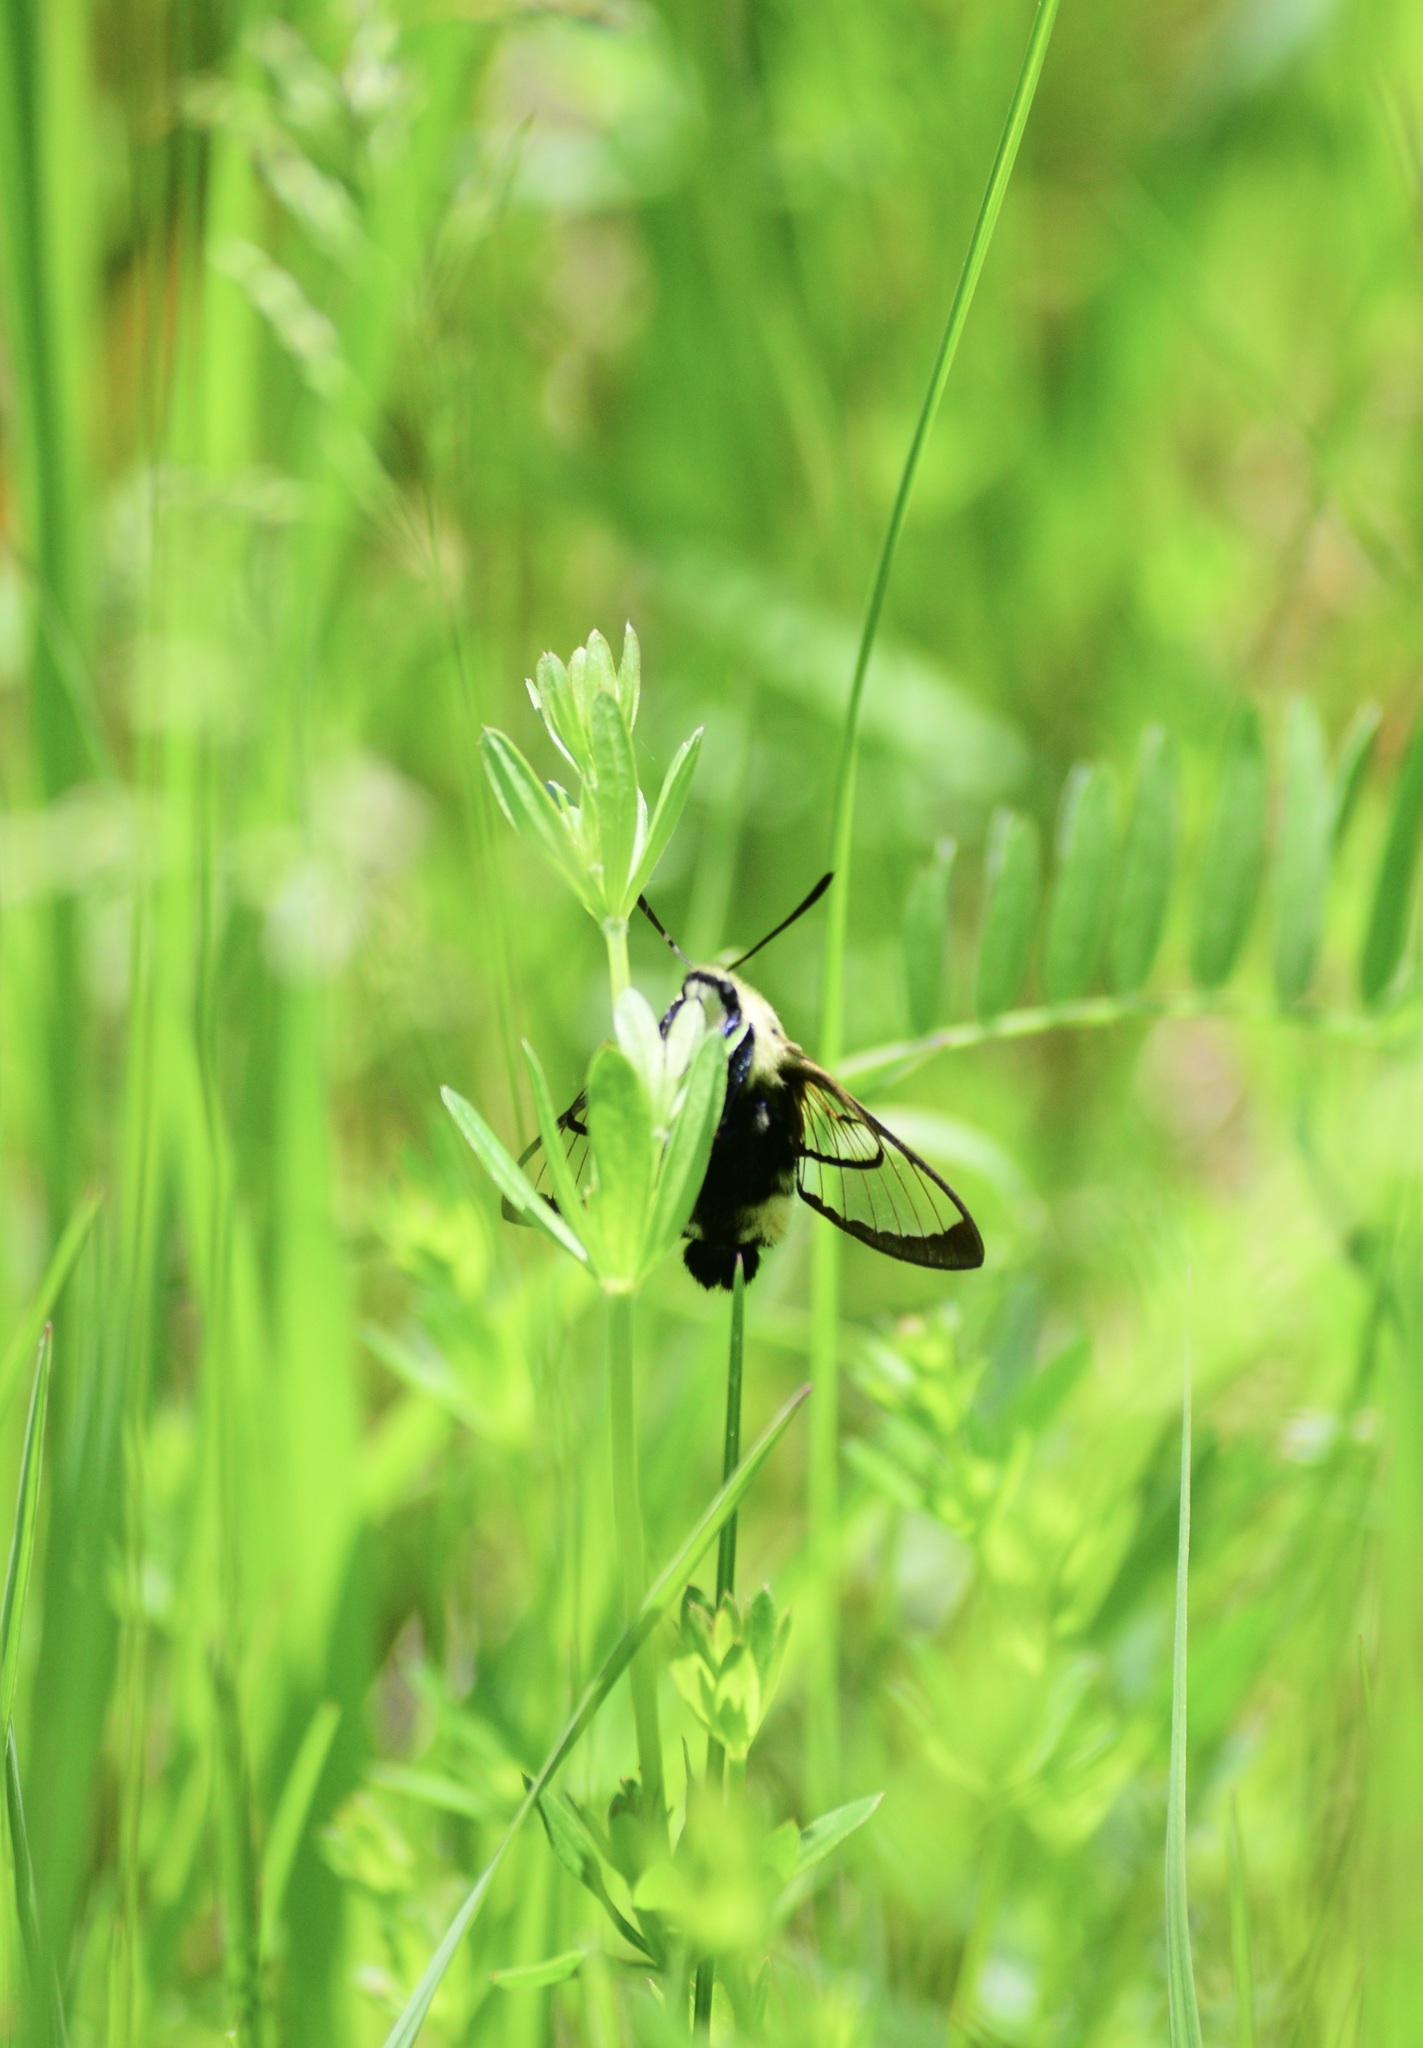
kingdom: Animalia
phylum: Arthropoda
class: Insecta
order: Lepidoptera
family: Sphingidae
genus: Hemaris
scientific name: Hemaris diffinis
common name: Bumblebee moth
